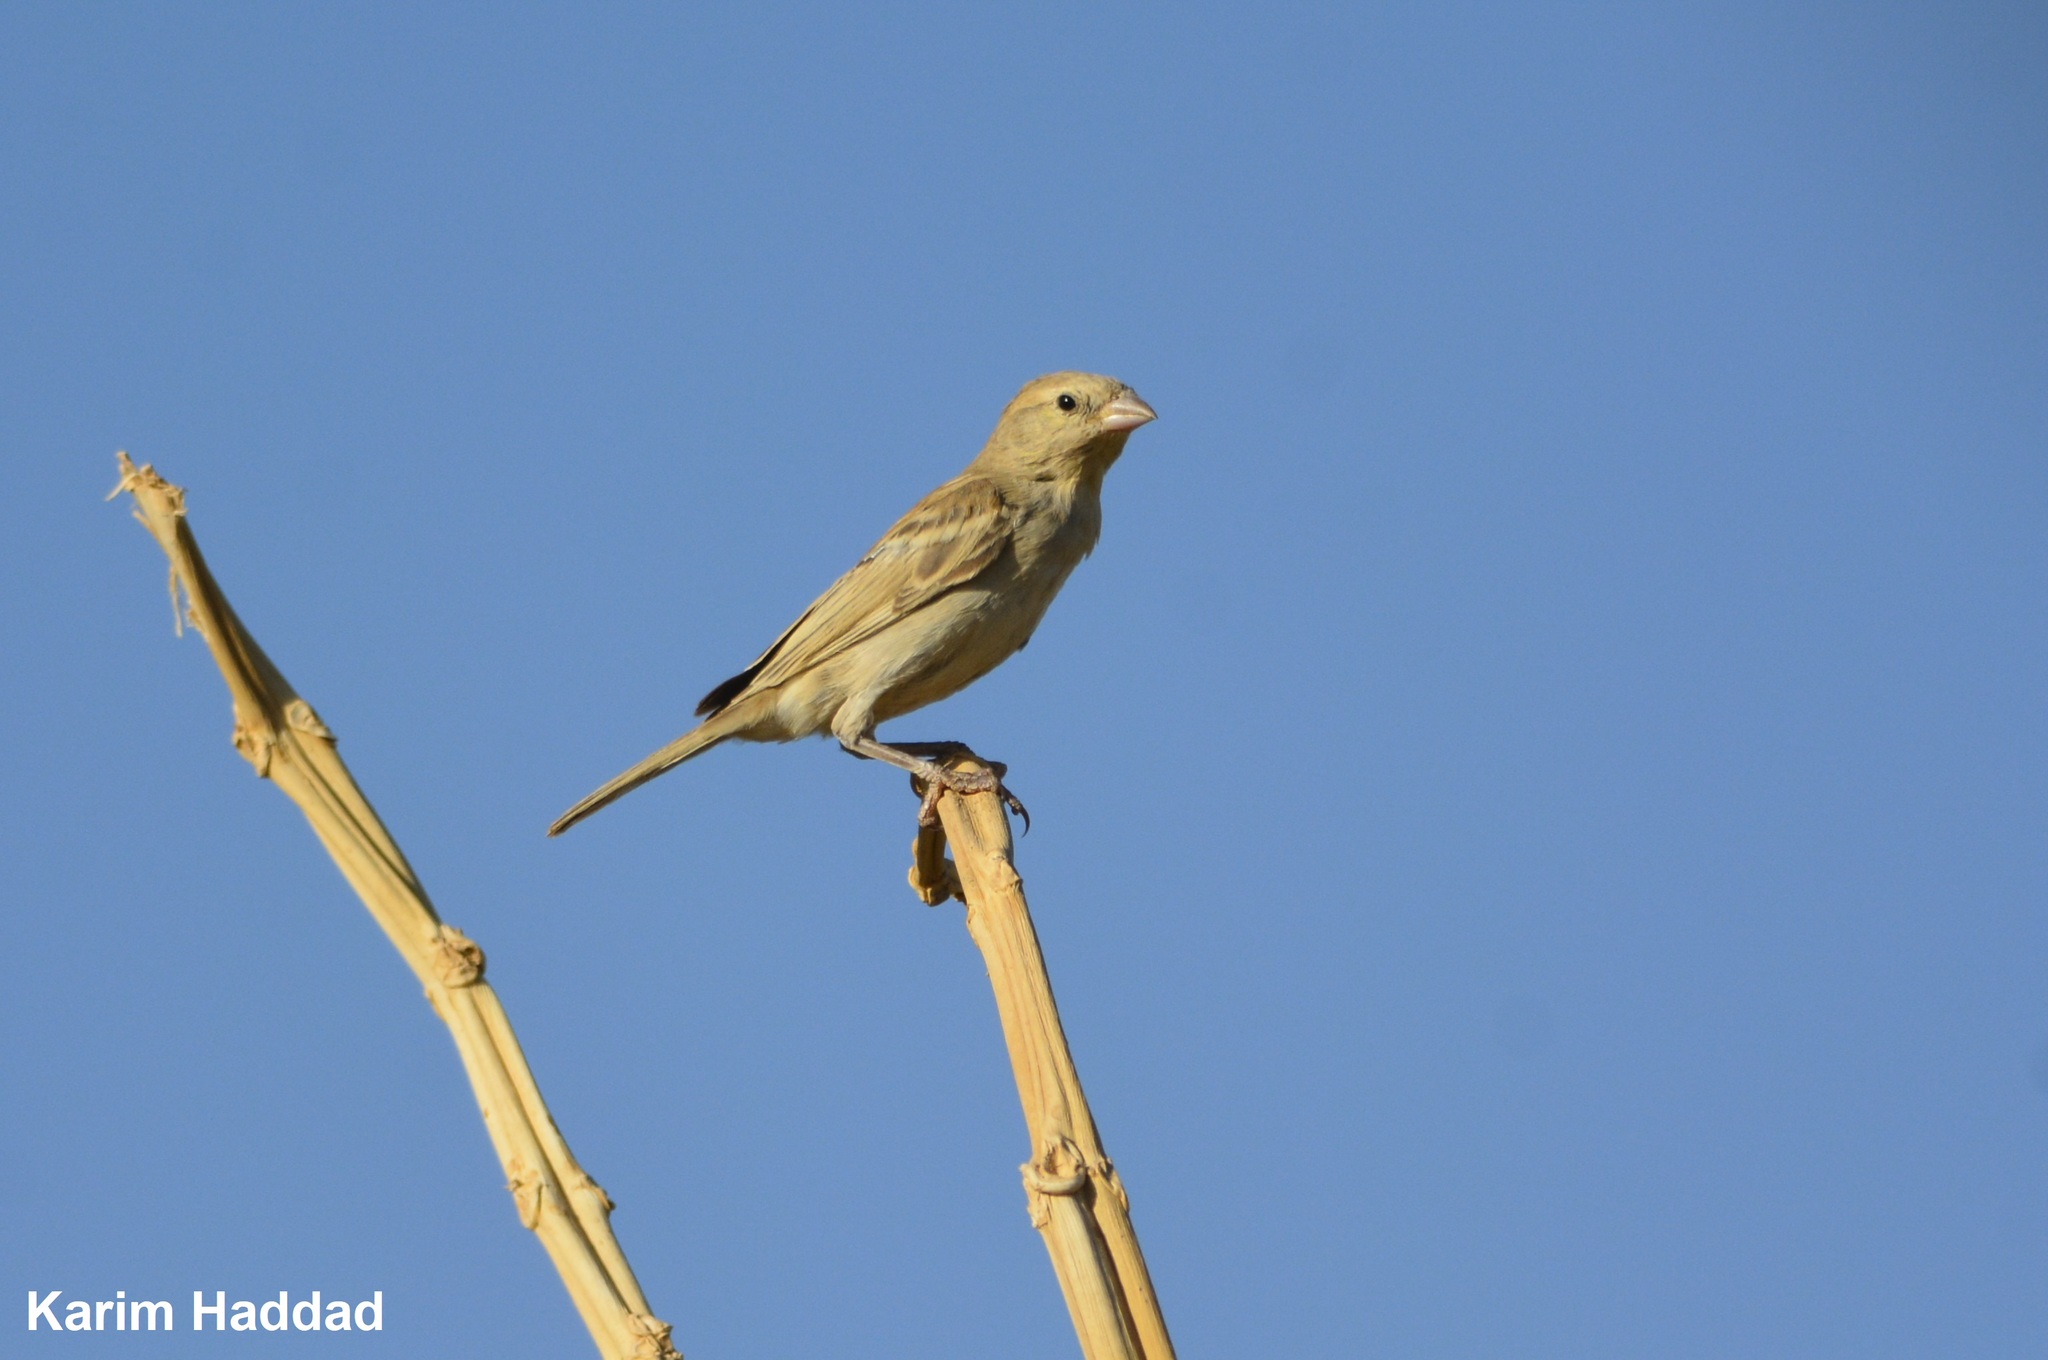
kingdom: Animalia
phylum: Chordata
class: Aves
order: Passeriformes
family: Passeridae
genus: Passer
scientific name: Passer luteus
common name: Sudan golden sparrow
